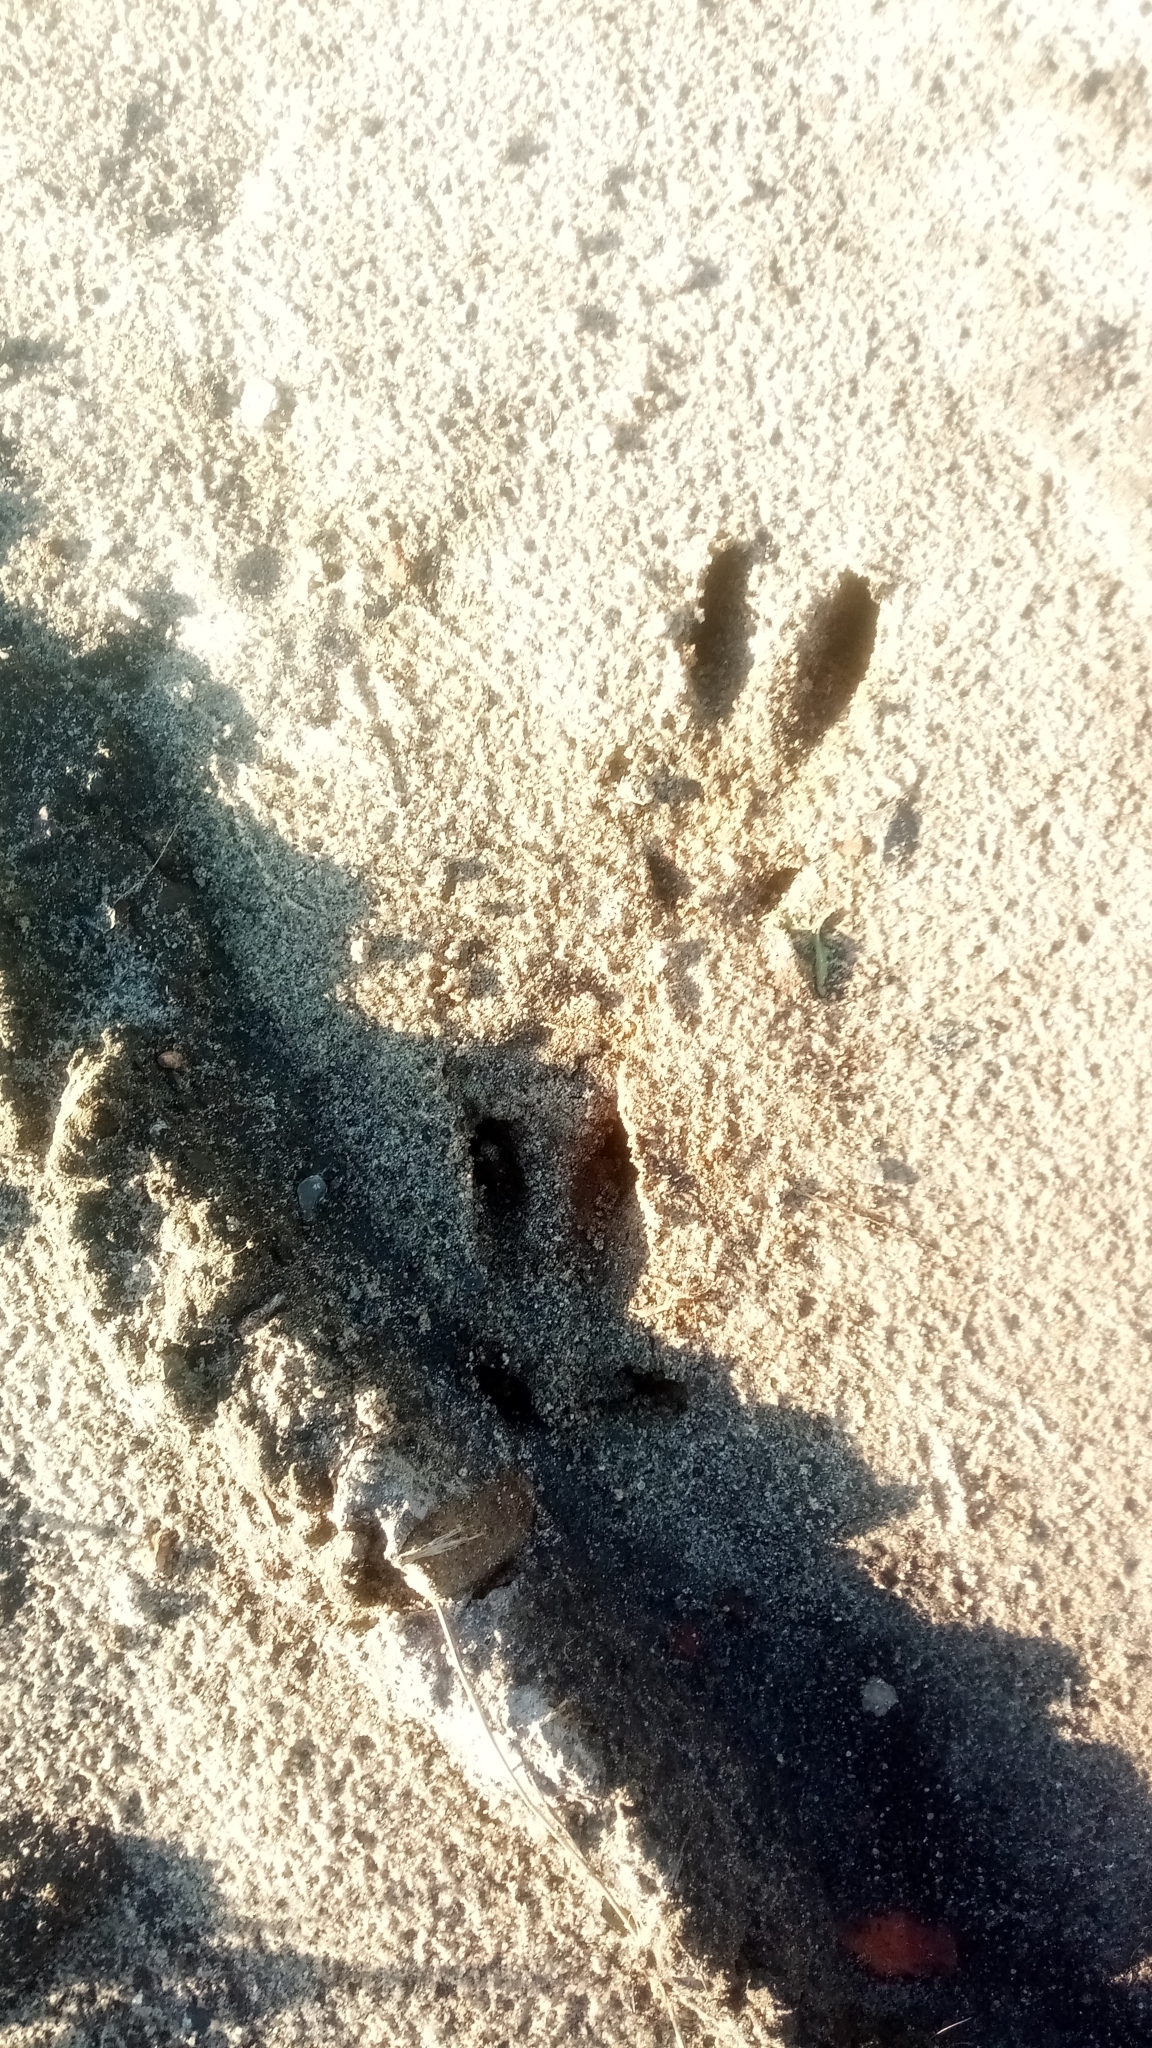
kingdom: Animalia
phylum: Chordata
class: Mammalia
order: Artiodactyla
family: Cervidae
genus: Capreolus
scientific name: Capreolus capreolus
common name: Western roe deer
